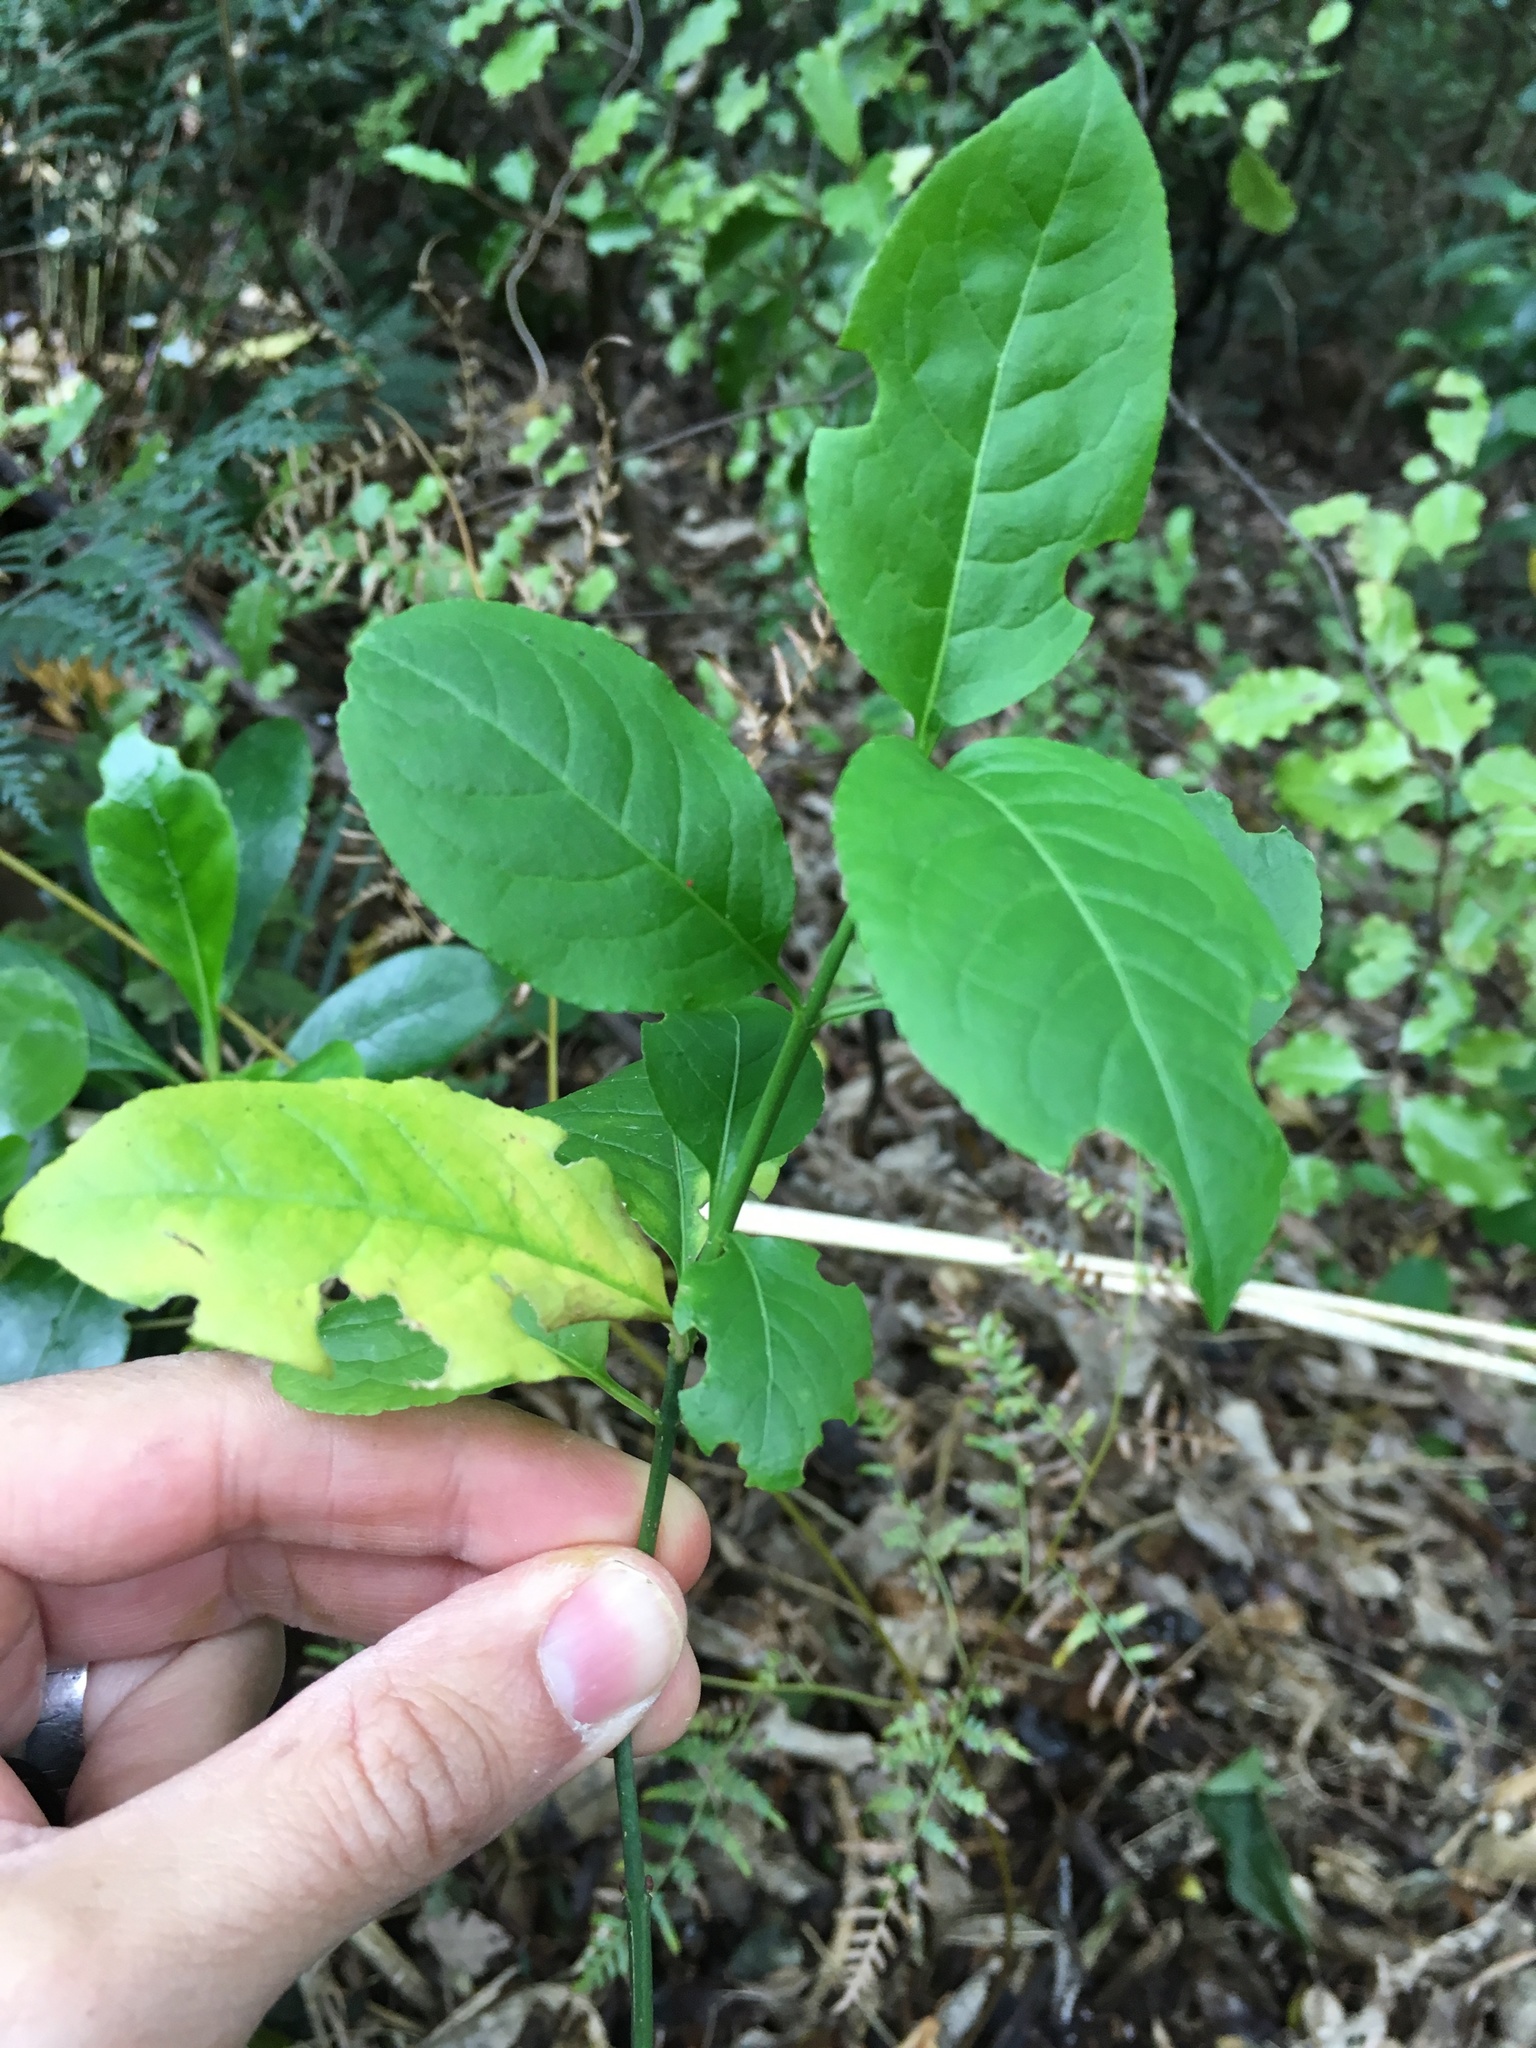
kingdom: Plantae
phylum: Tracheophyta
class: Magnoliopsida
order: Celastrales
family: Celastraceae
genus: Euonymus
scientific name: Euonymus europaeus
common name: Spindle
